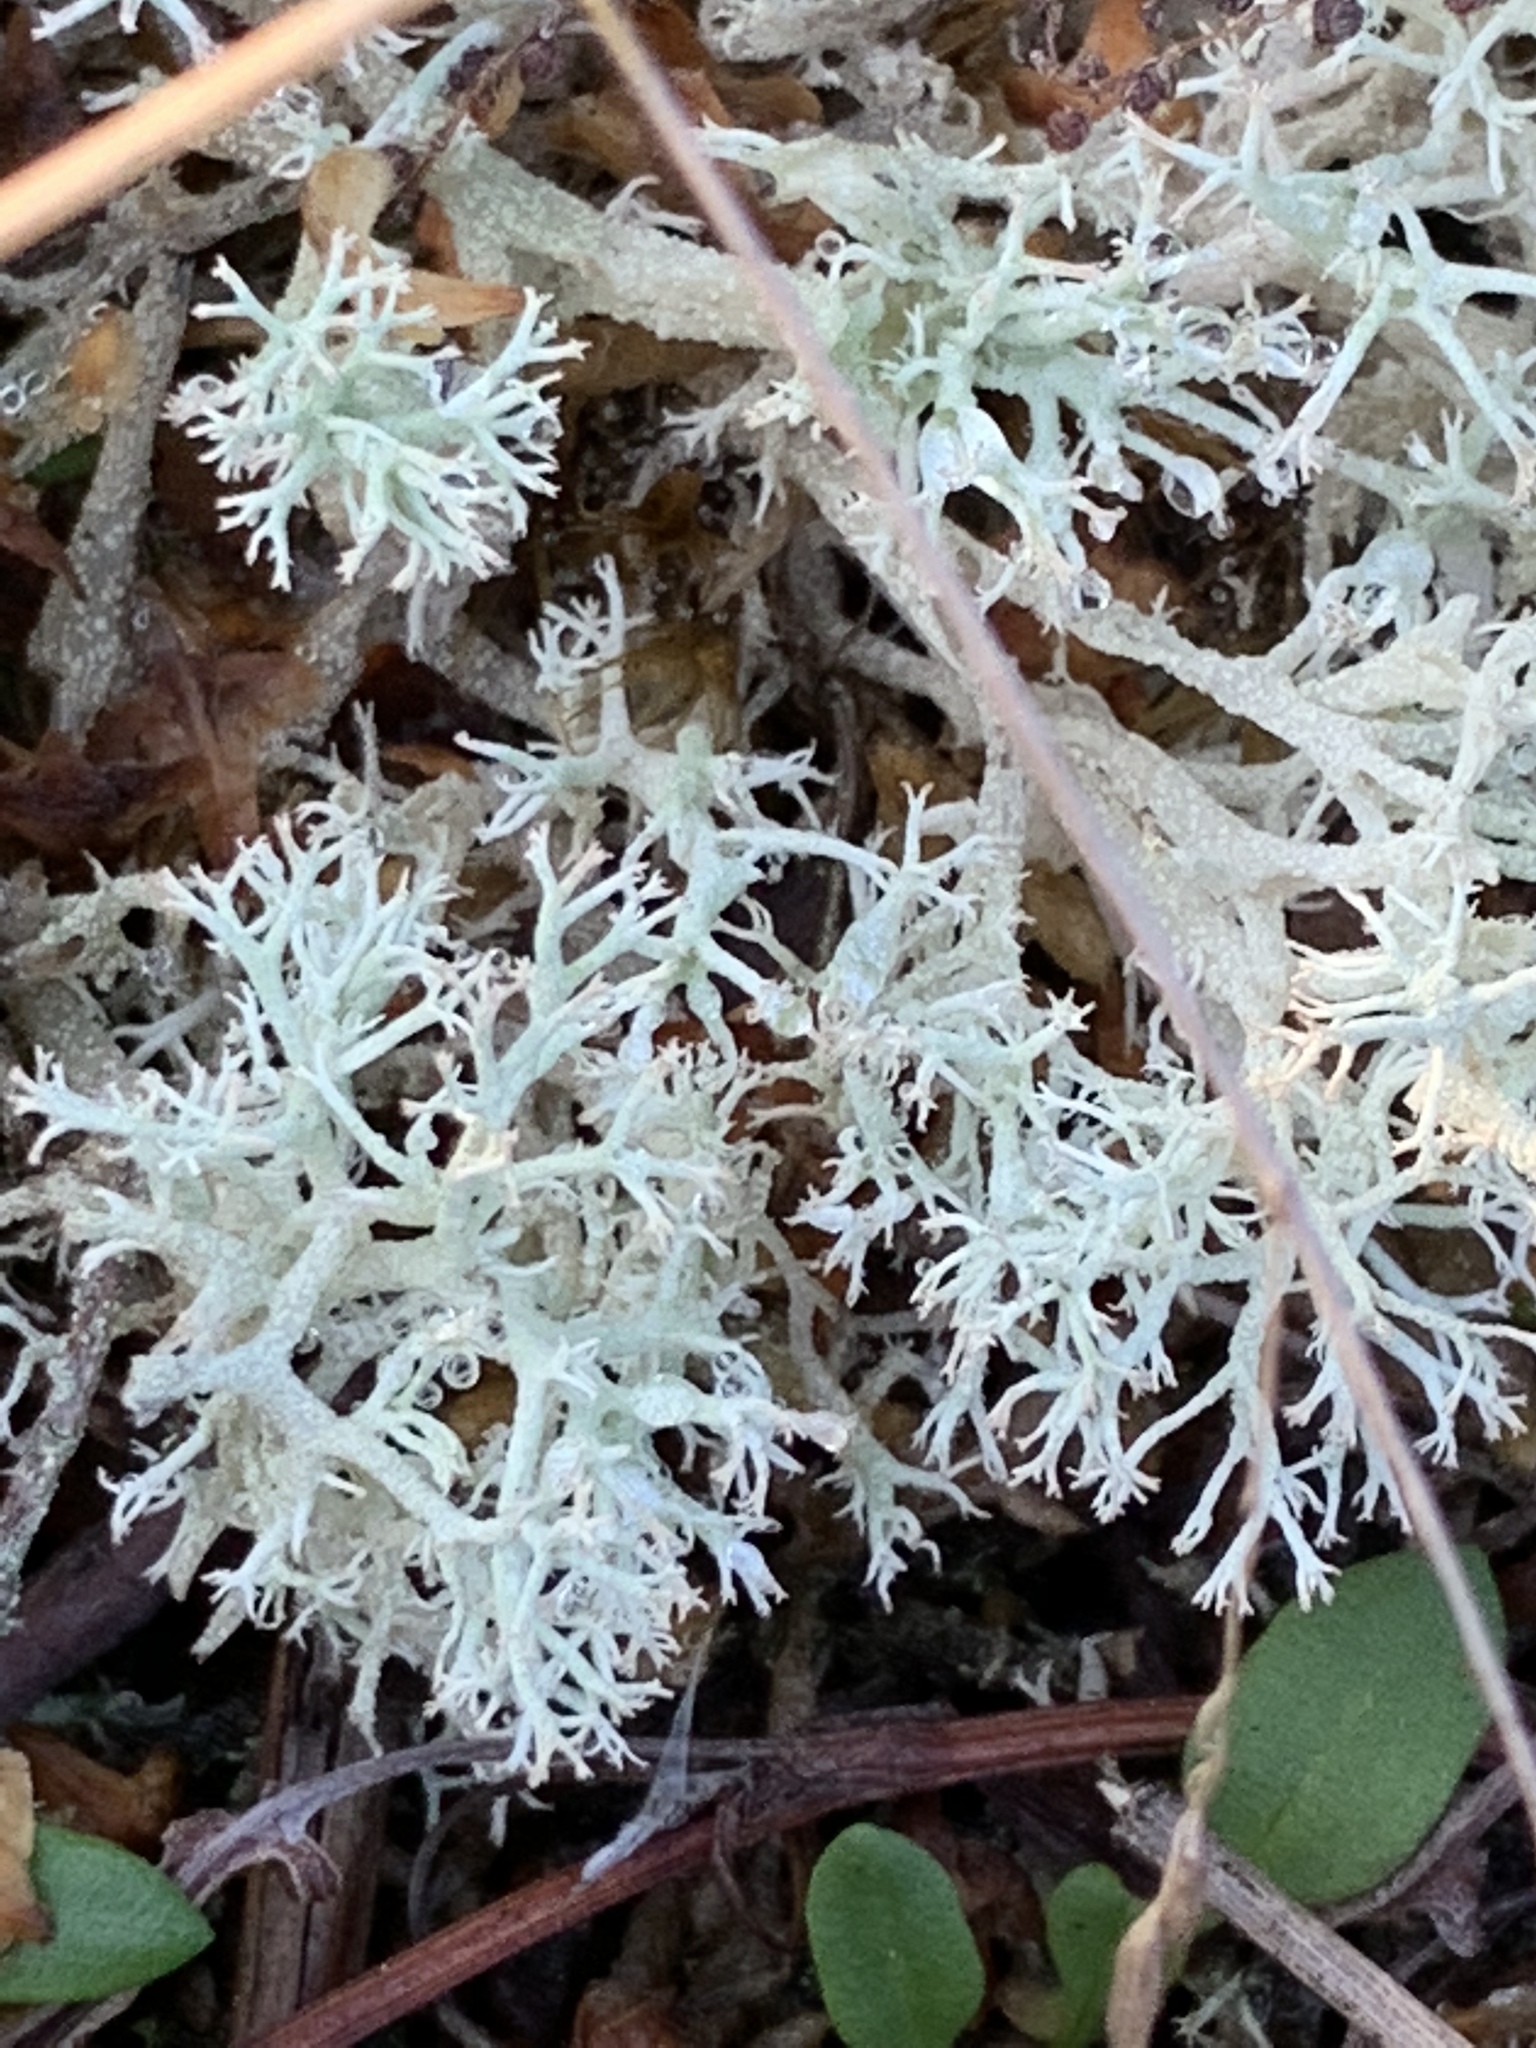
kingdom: Fungi
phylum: Ascomycota
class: Lecanoromycetes
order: Lecanorales
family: Cladoniaceae
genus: Cladonia
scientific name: Cladonia portentosa
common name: Reindeer lichen
